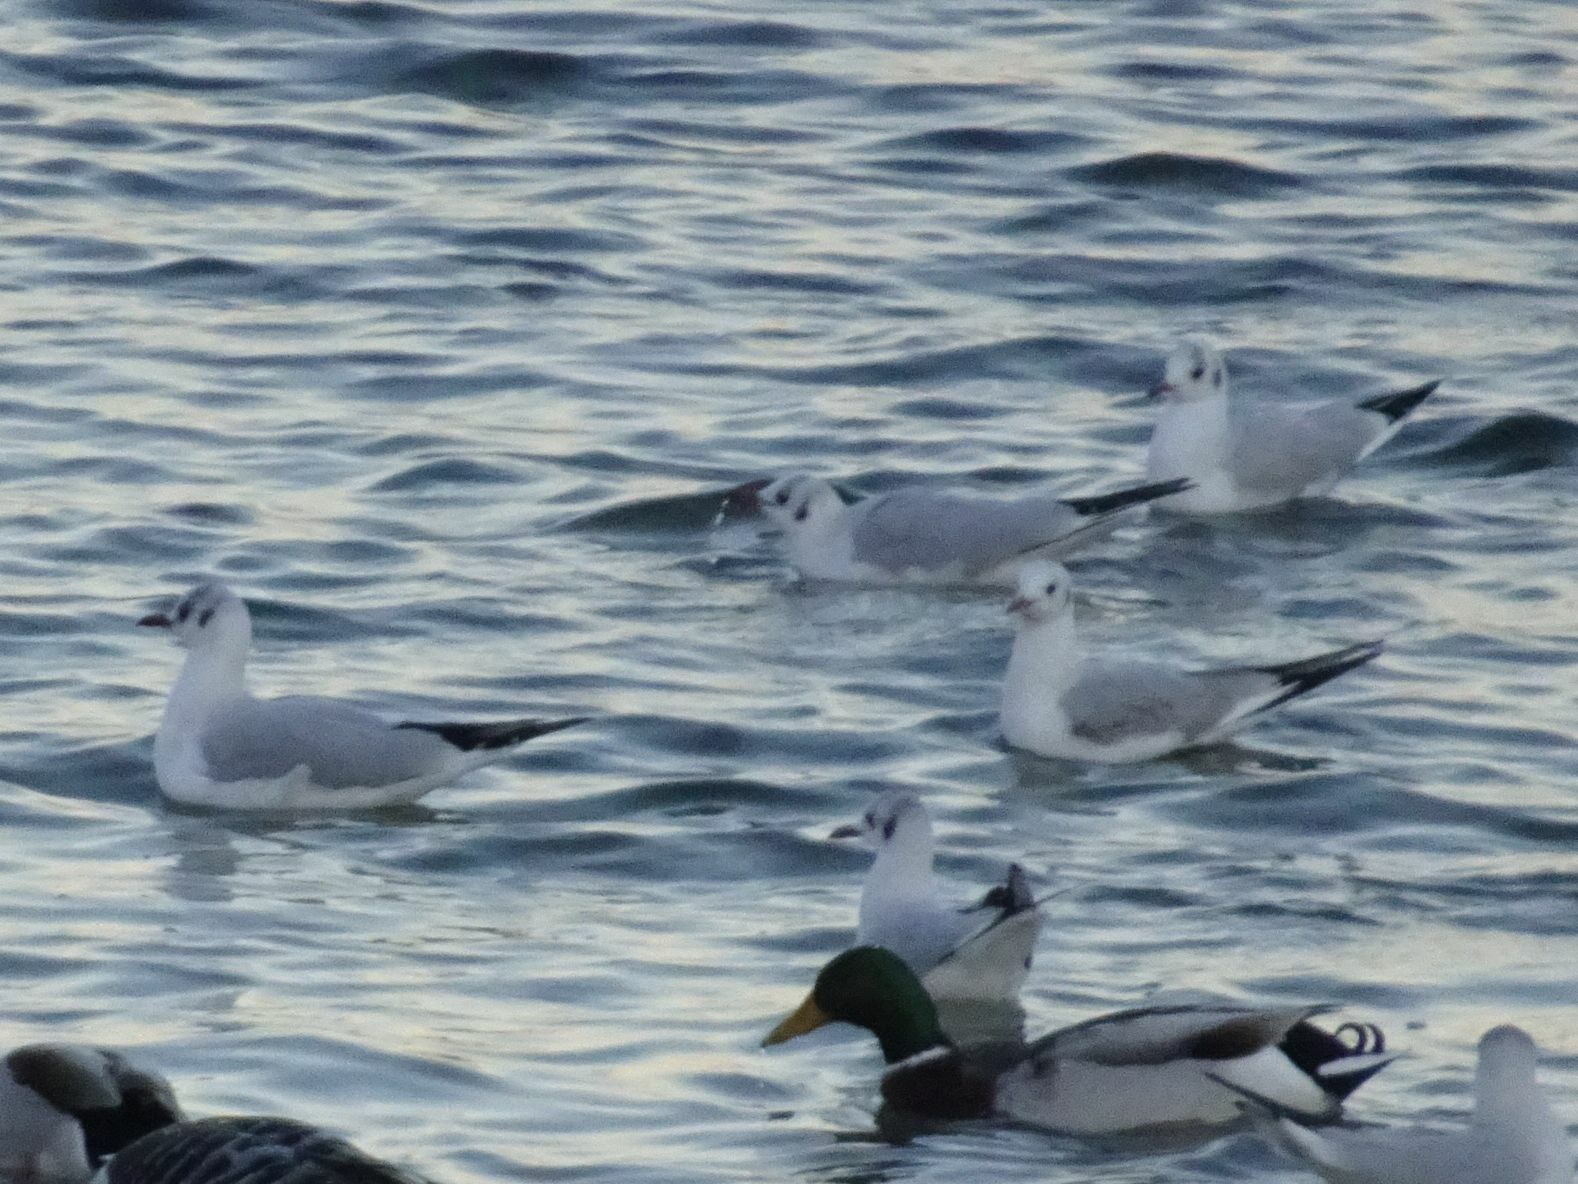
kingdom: Animalia
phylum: Chordata
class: Aves
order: Charadriiformes
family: Laridae
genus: Chroicocephalus
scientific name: Chroicocephalus ridibundus
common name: Black-headed gull
